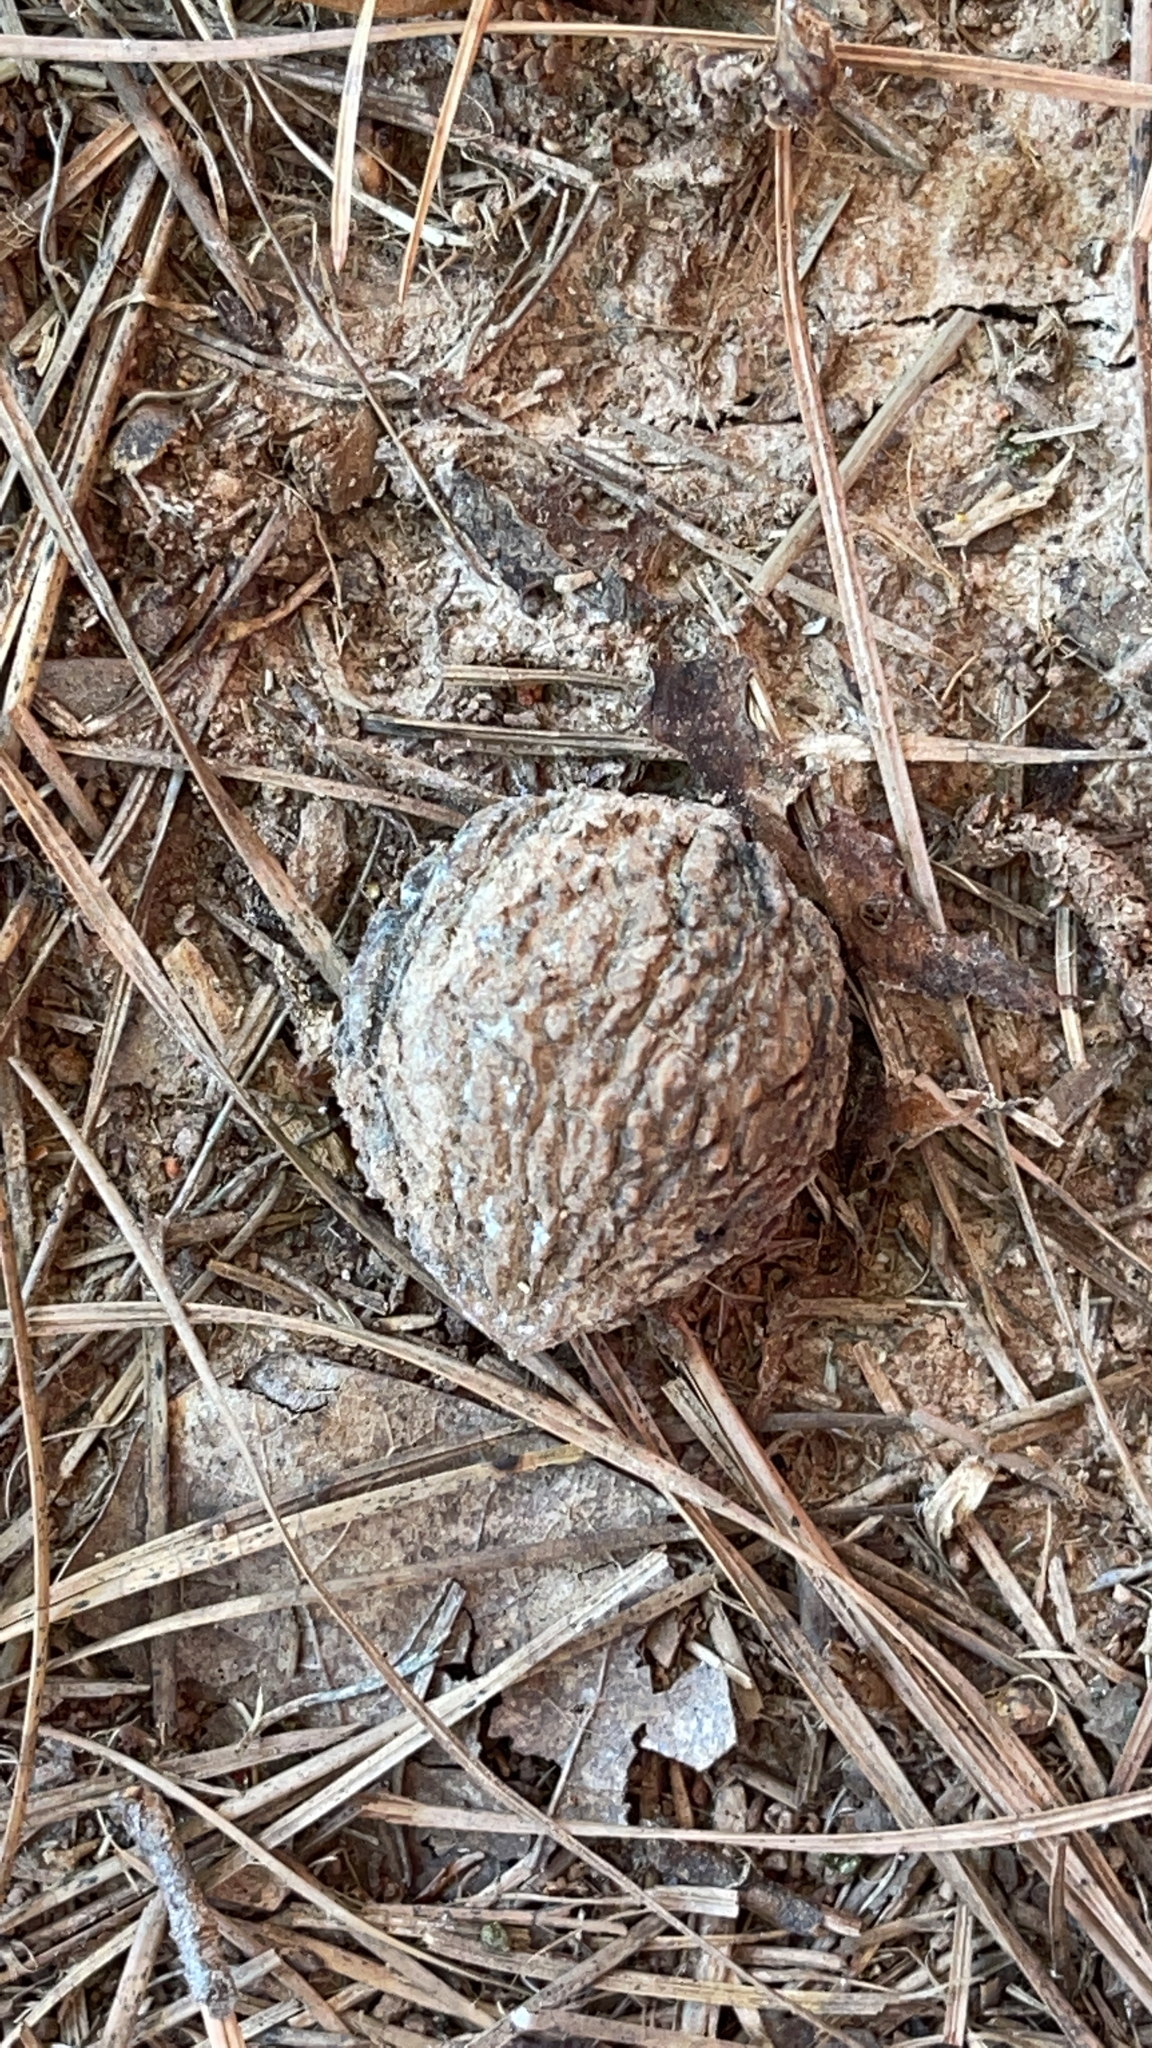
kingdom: Plantae
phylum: Tracheophyta
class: Magnoliopsida
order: Fagales
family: Juglandaceae
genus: Juglans
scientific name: Juglans nigra
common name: Black walnut
